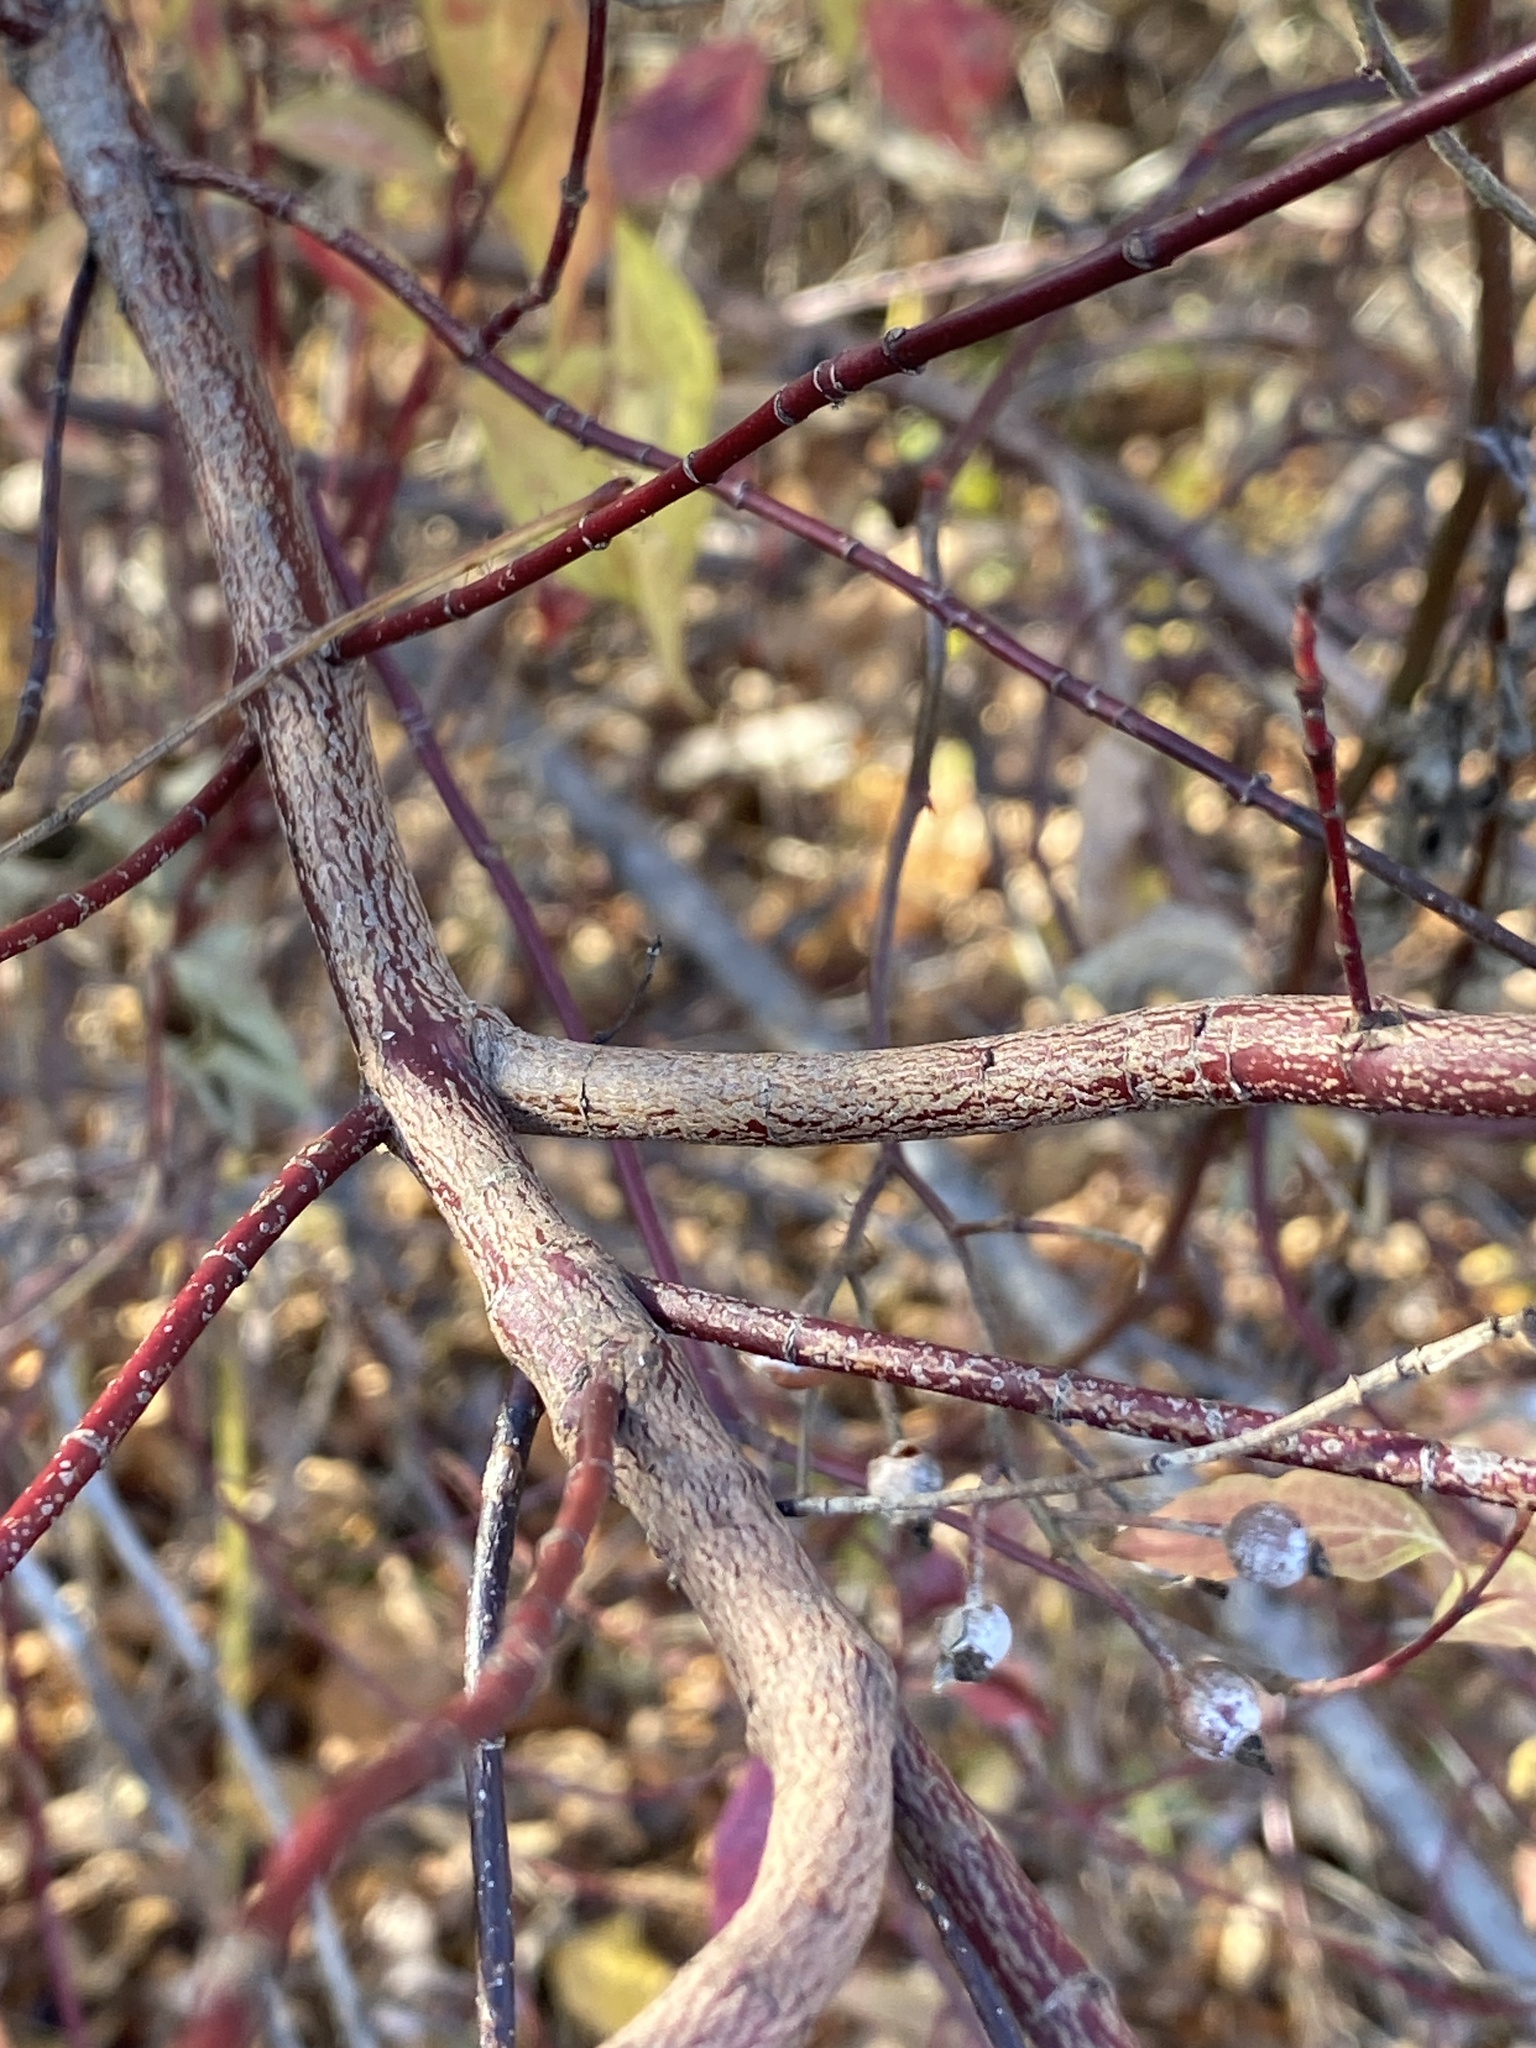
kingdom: Plantae
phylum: Tracheophyta
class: Magnoliopsida
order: Cornales
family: Cornaceae
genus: Cornus
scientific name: Cornus amomum
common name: Silky dogwood
